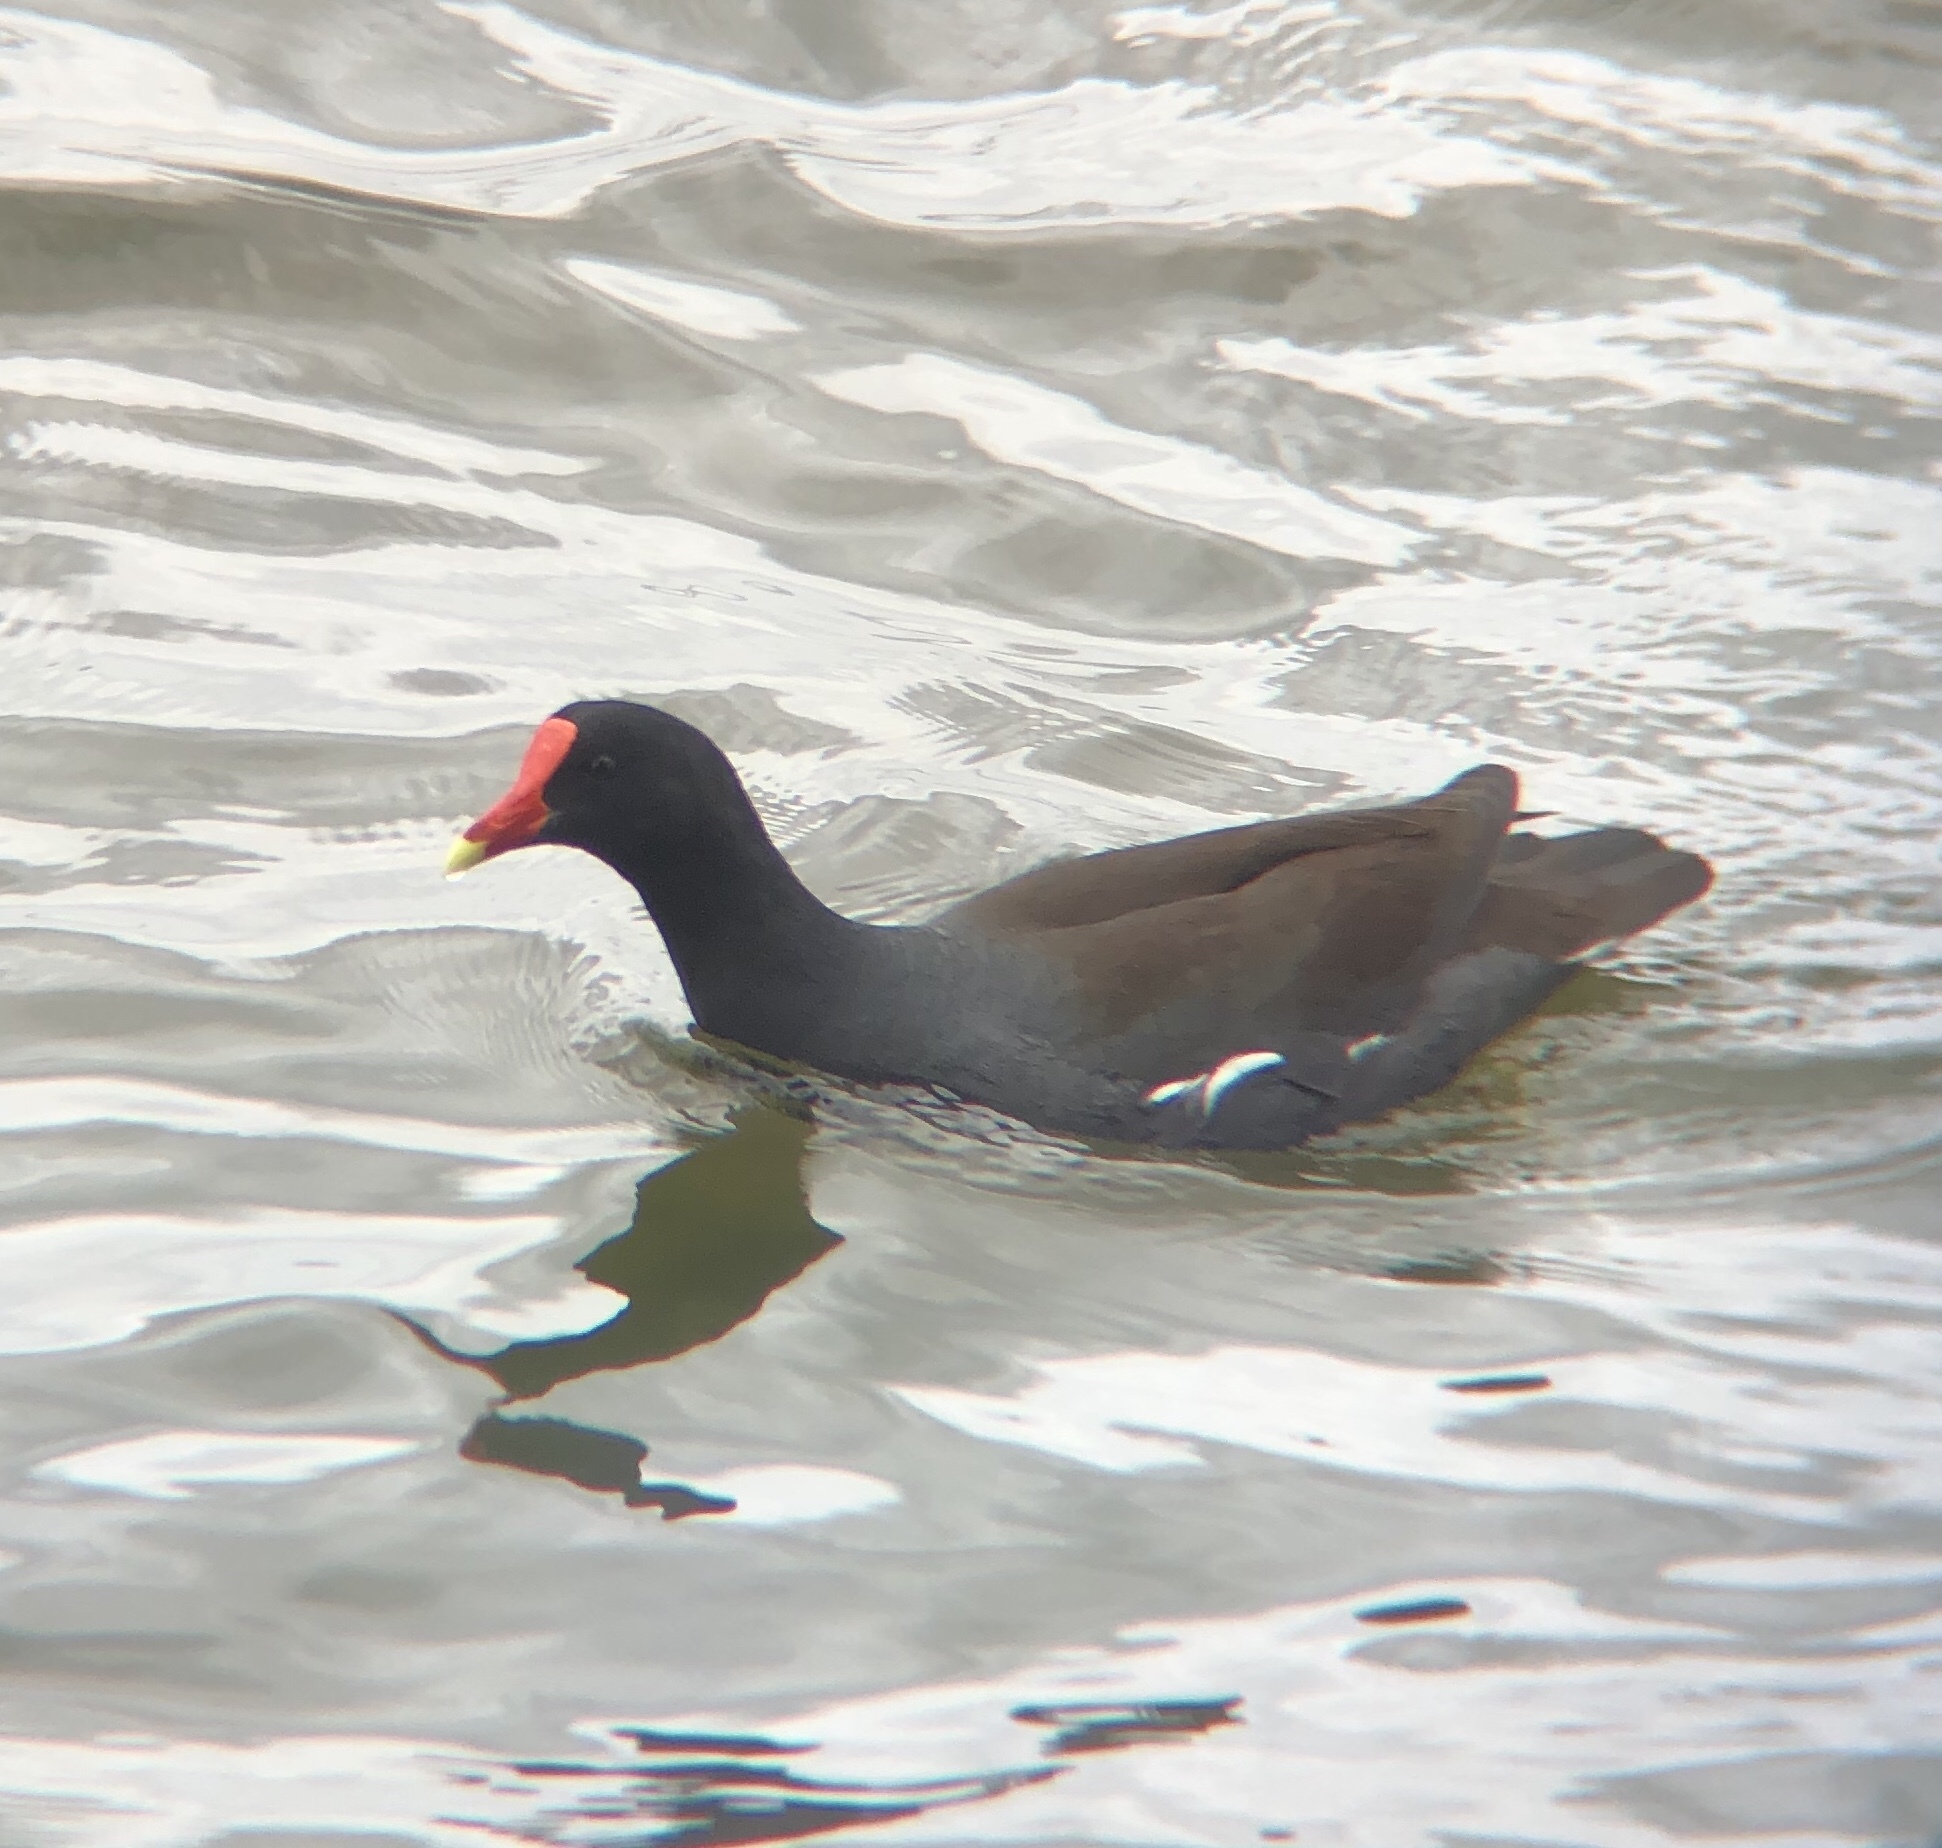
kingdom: Animalia
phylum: Chordata
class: Aves
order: Gruiformes
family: Rallidae
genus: Gallinula
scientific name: Gallinula chloropus
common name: Common moorhen
